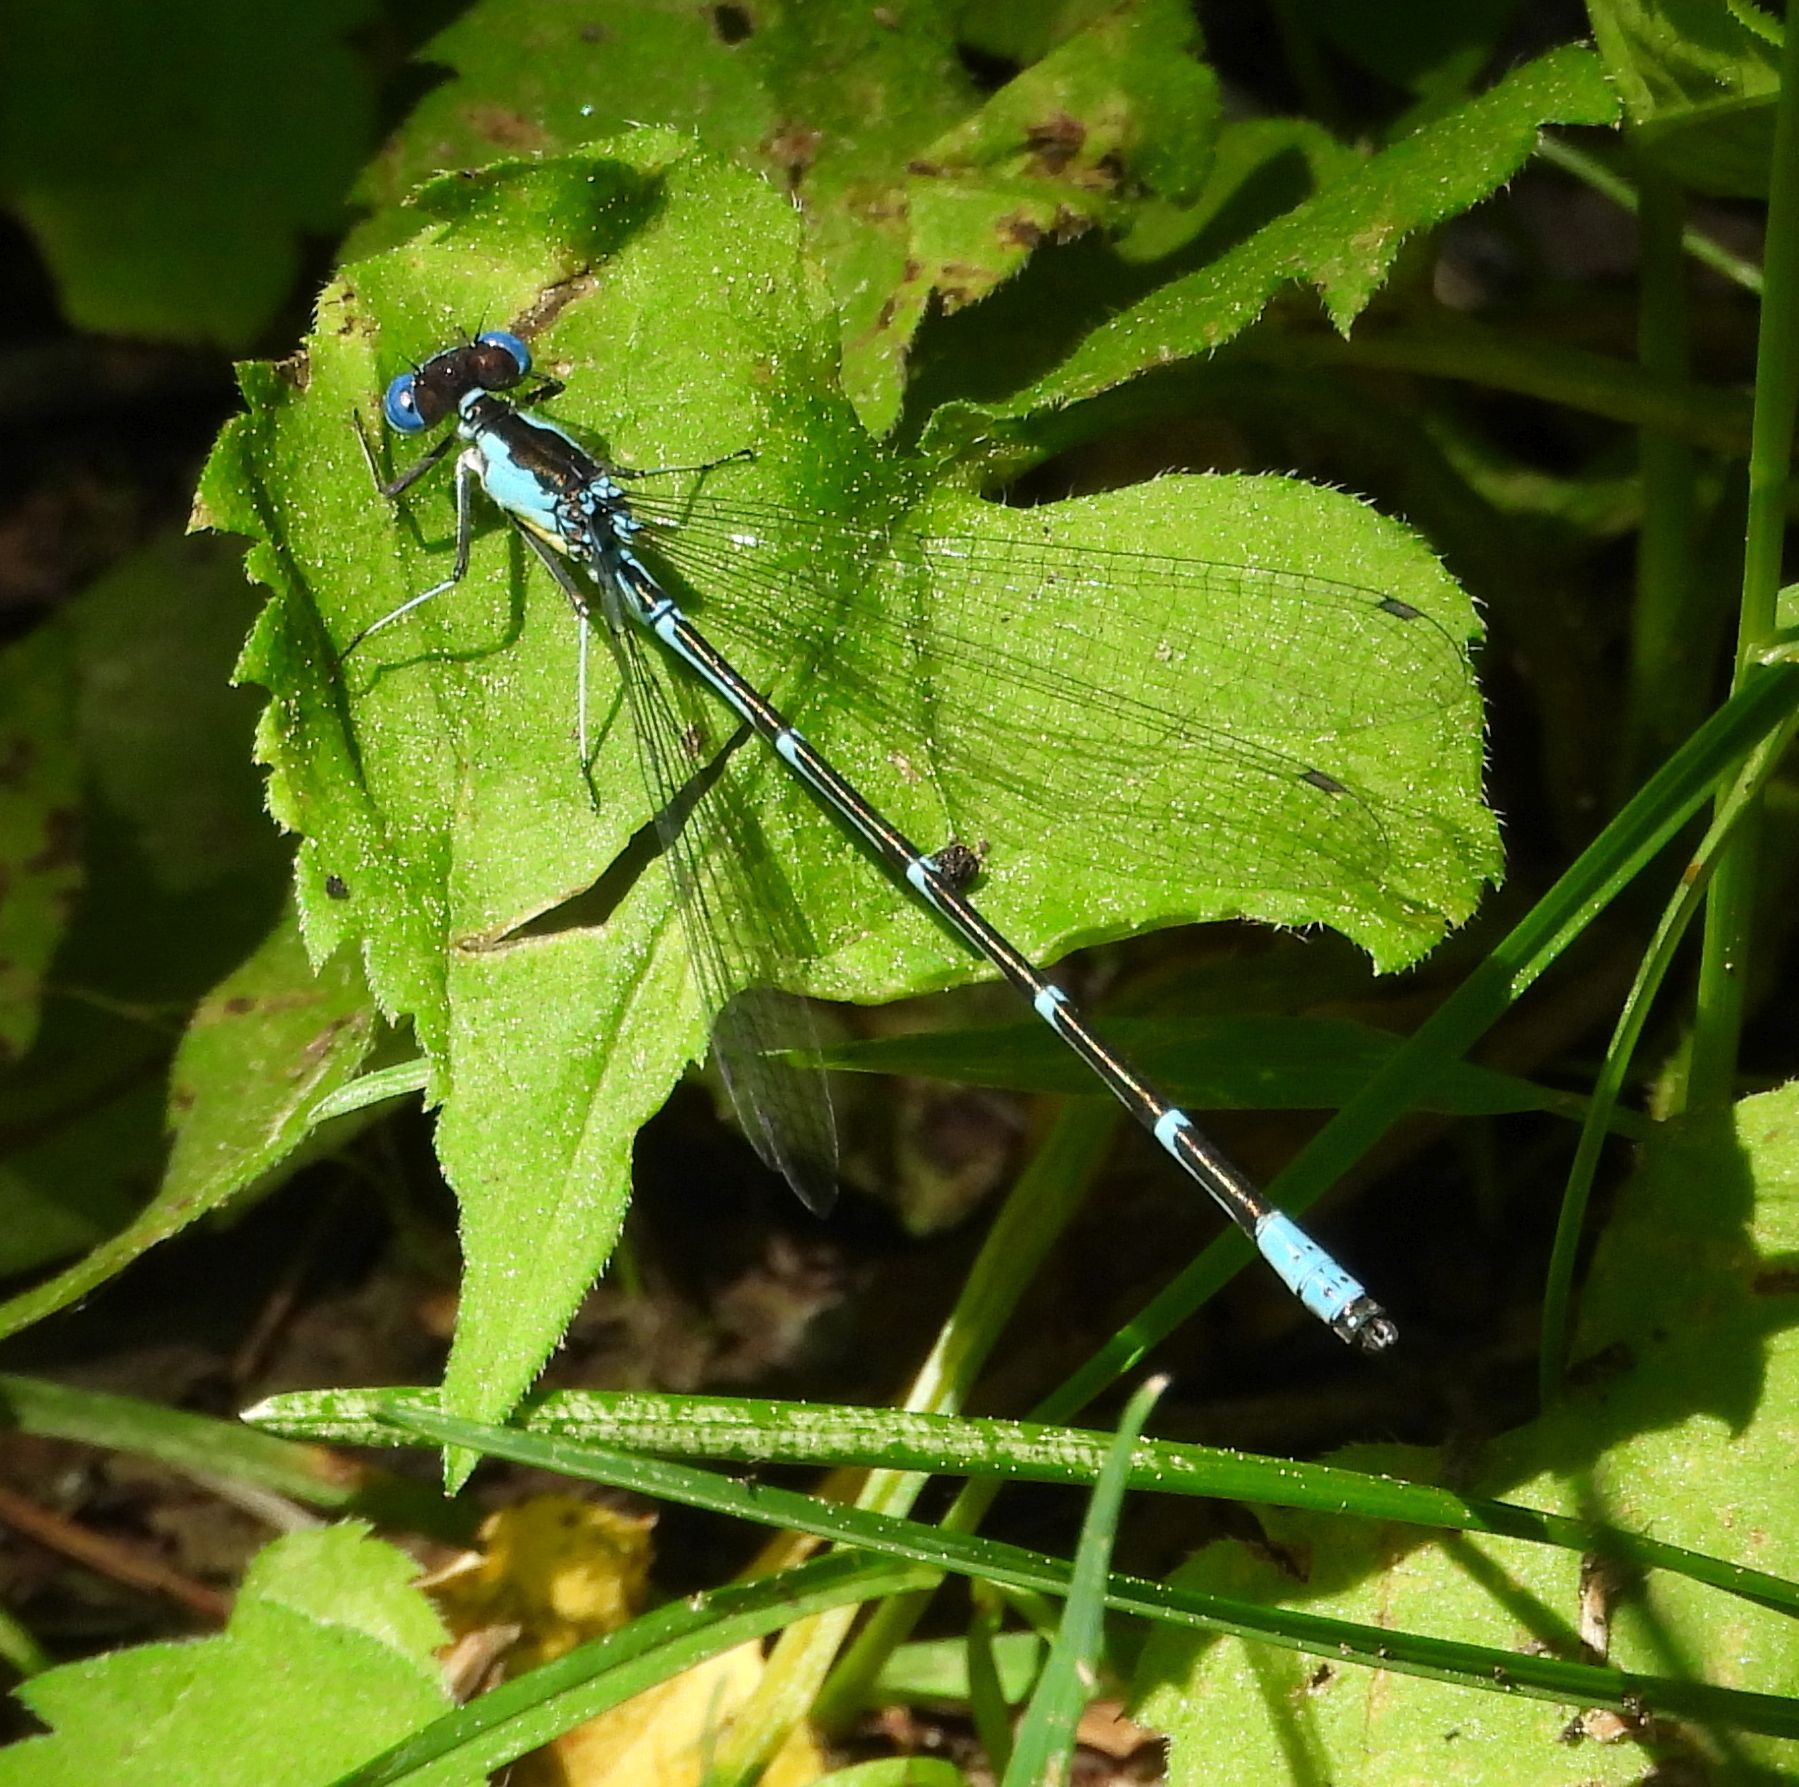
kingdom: Animalia
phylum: Arthropoda
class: Insecta
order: Odonata
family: Coenagrionidae
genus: Chromagrion
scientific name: Chromagrion conditum
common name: Aurora damsel
